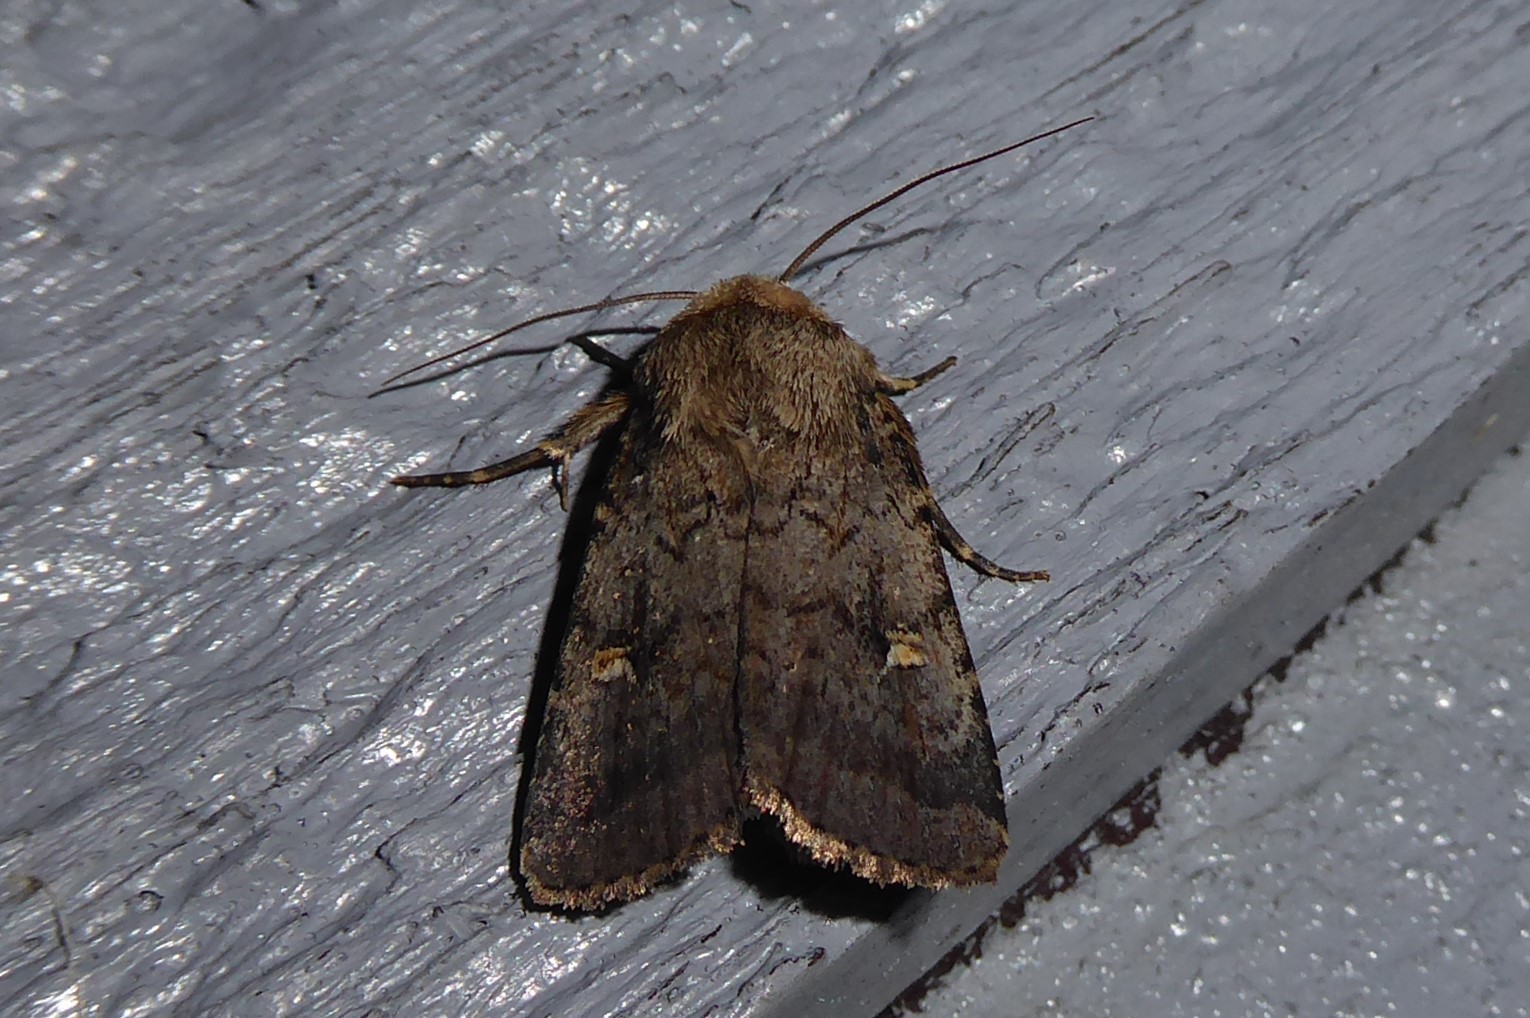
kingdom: Animalia
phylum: Arthropoda
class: Insecta
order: Lepidoptera
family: Noctuidae
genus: Proteuxoa
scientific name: Proteuxoa tetronycha
